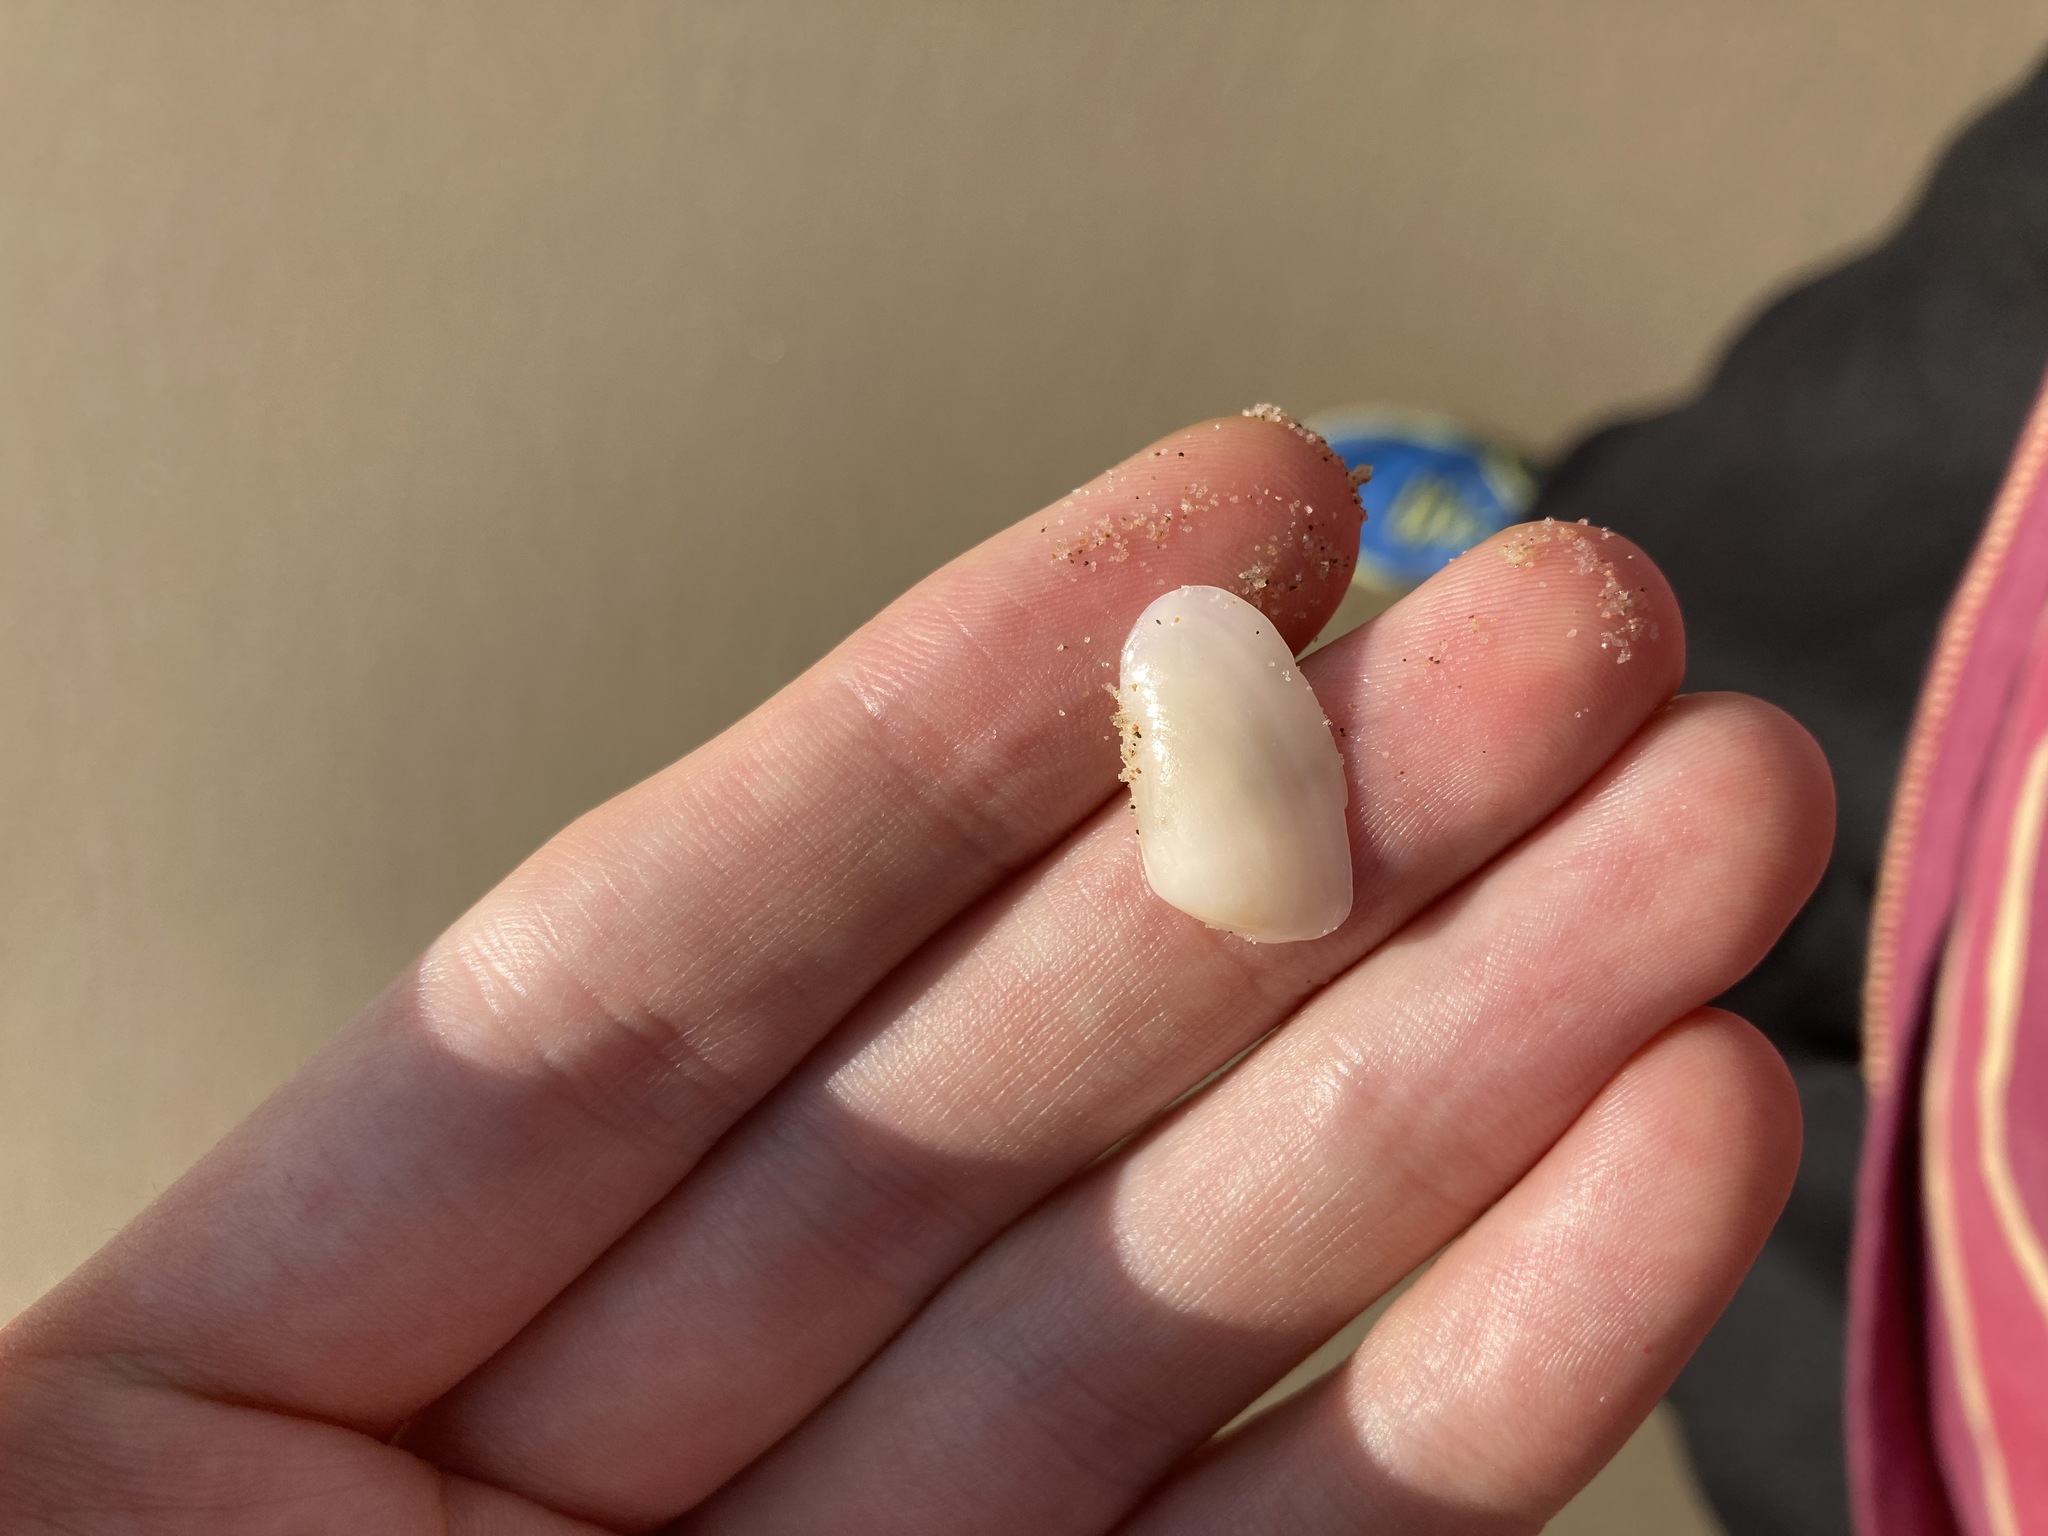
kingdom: Animalia
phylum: Mollusca
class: Bivalvia
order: Venerida
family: Mesodesmatidae
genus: Paphies
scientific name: Paphies angusta
